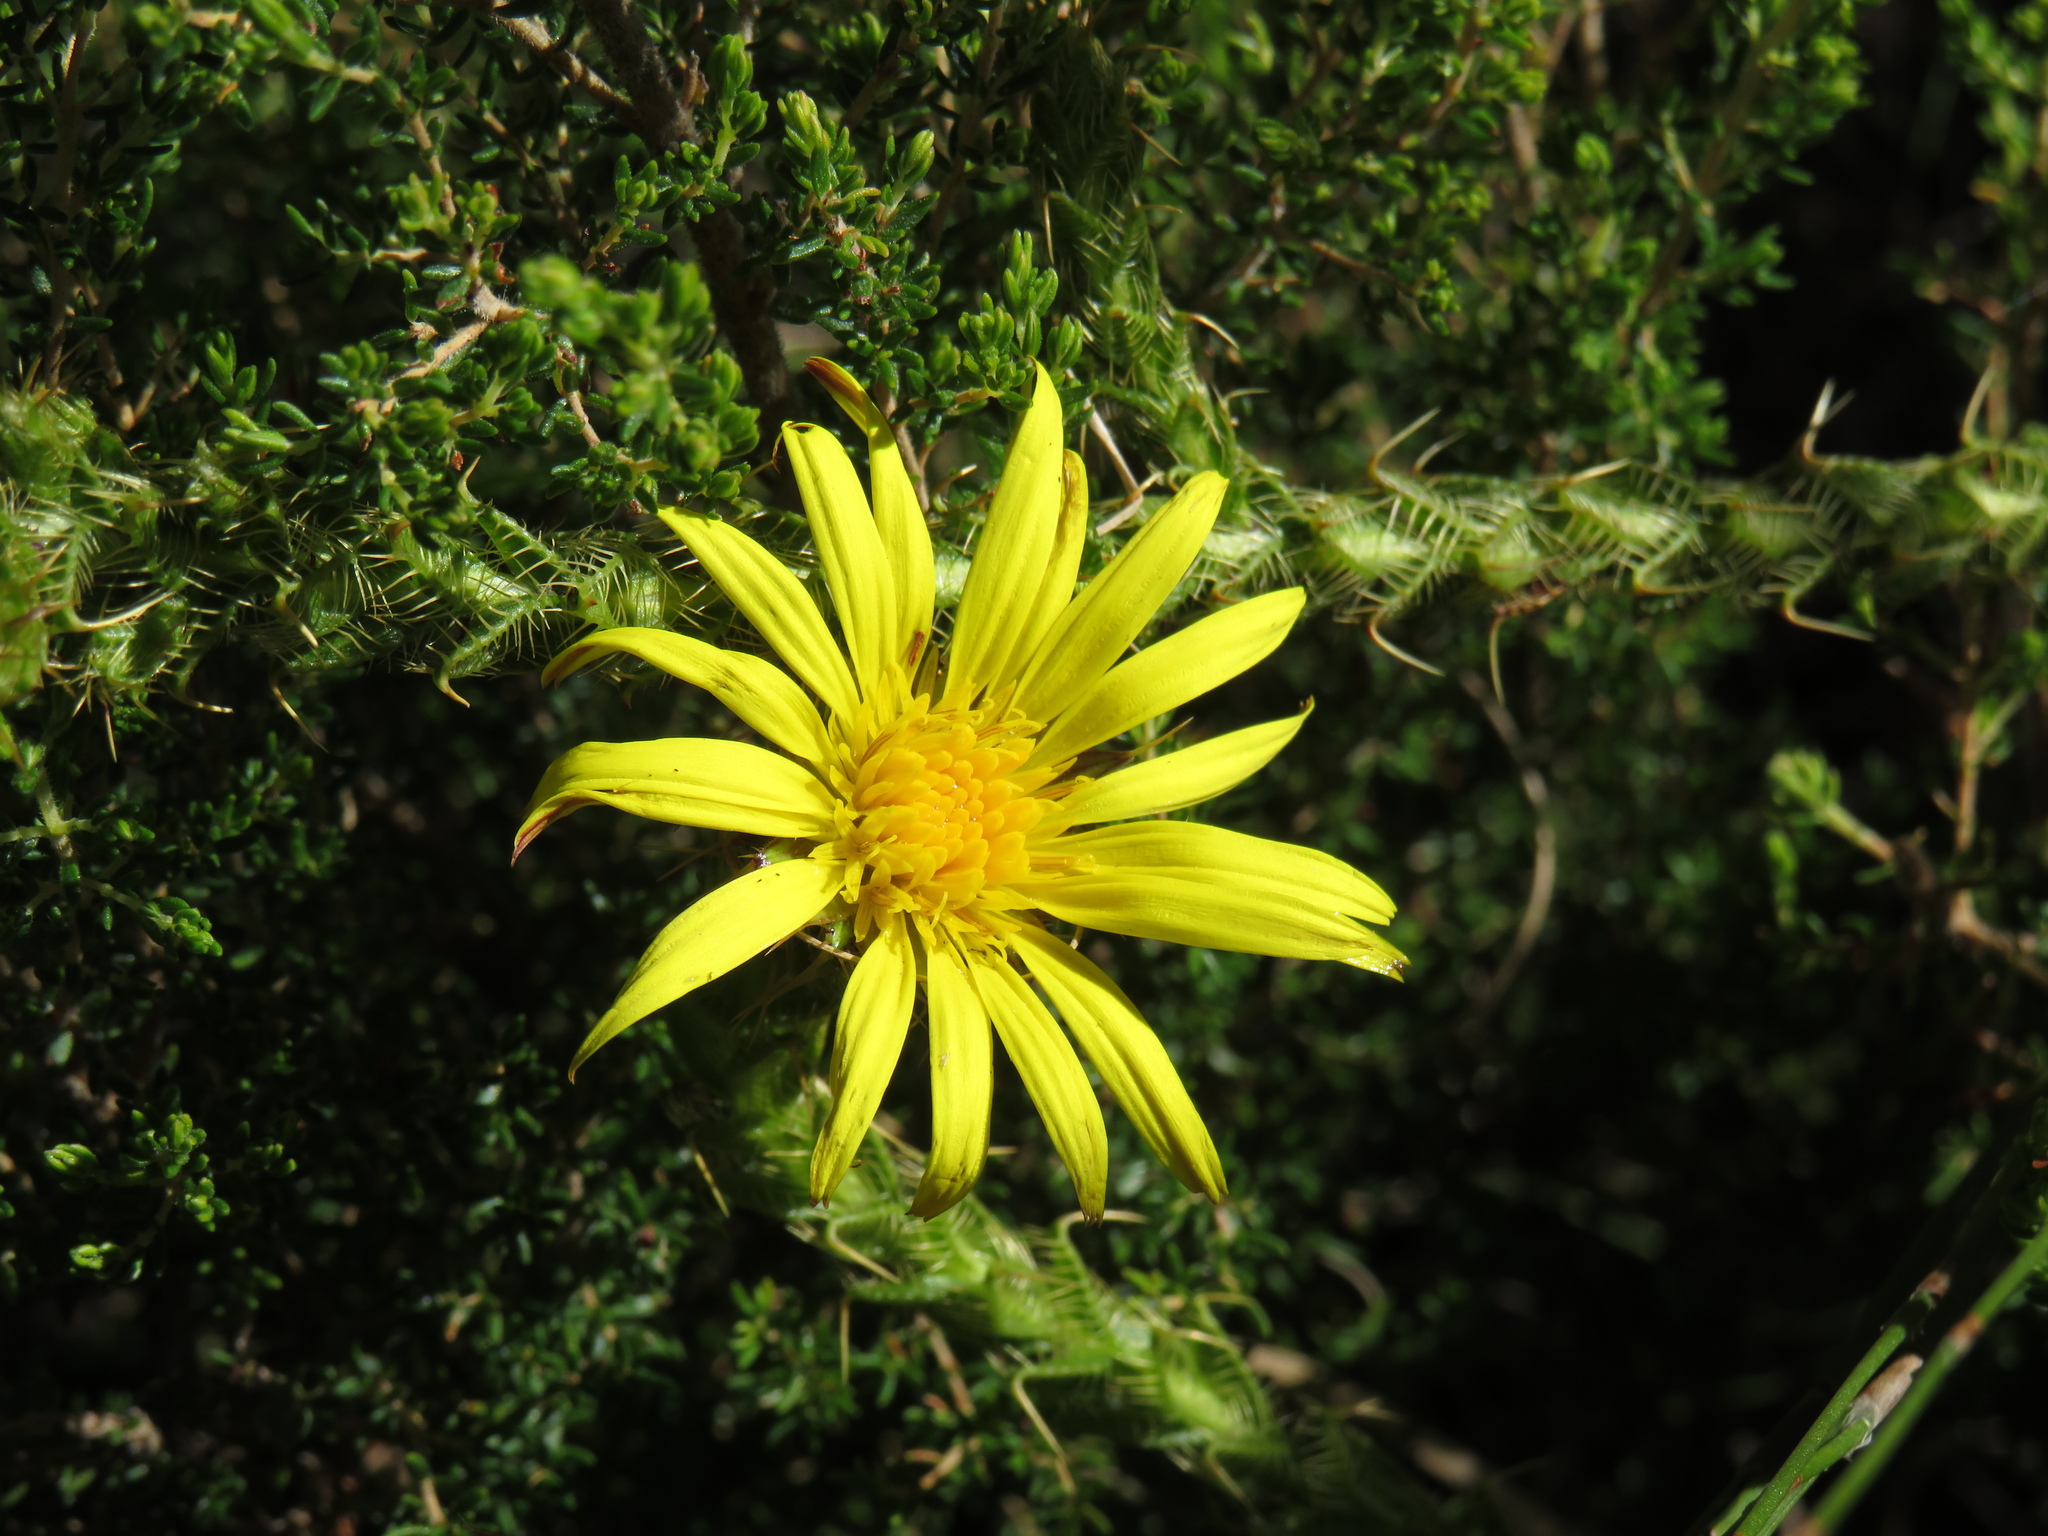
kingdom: Plantae
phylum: Tracheophyta
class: Magnoliopsida
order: Asterales
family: Asteraceae
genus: Cullumia
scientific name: Cullumia reticulata
